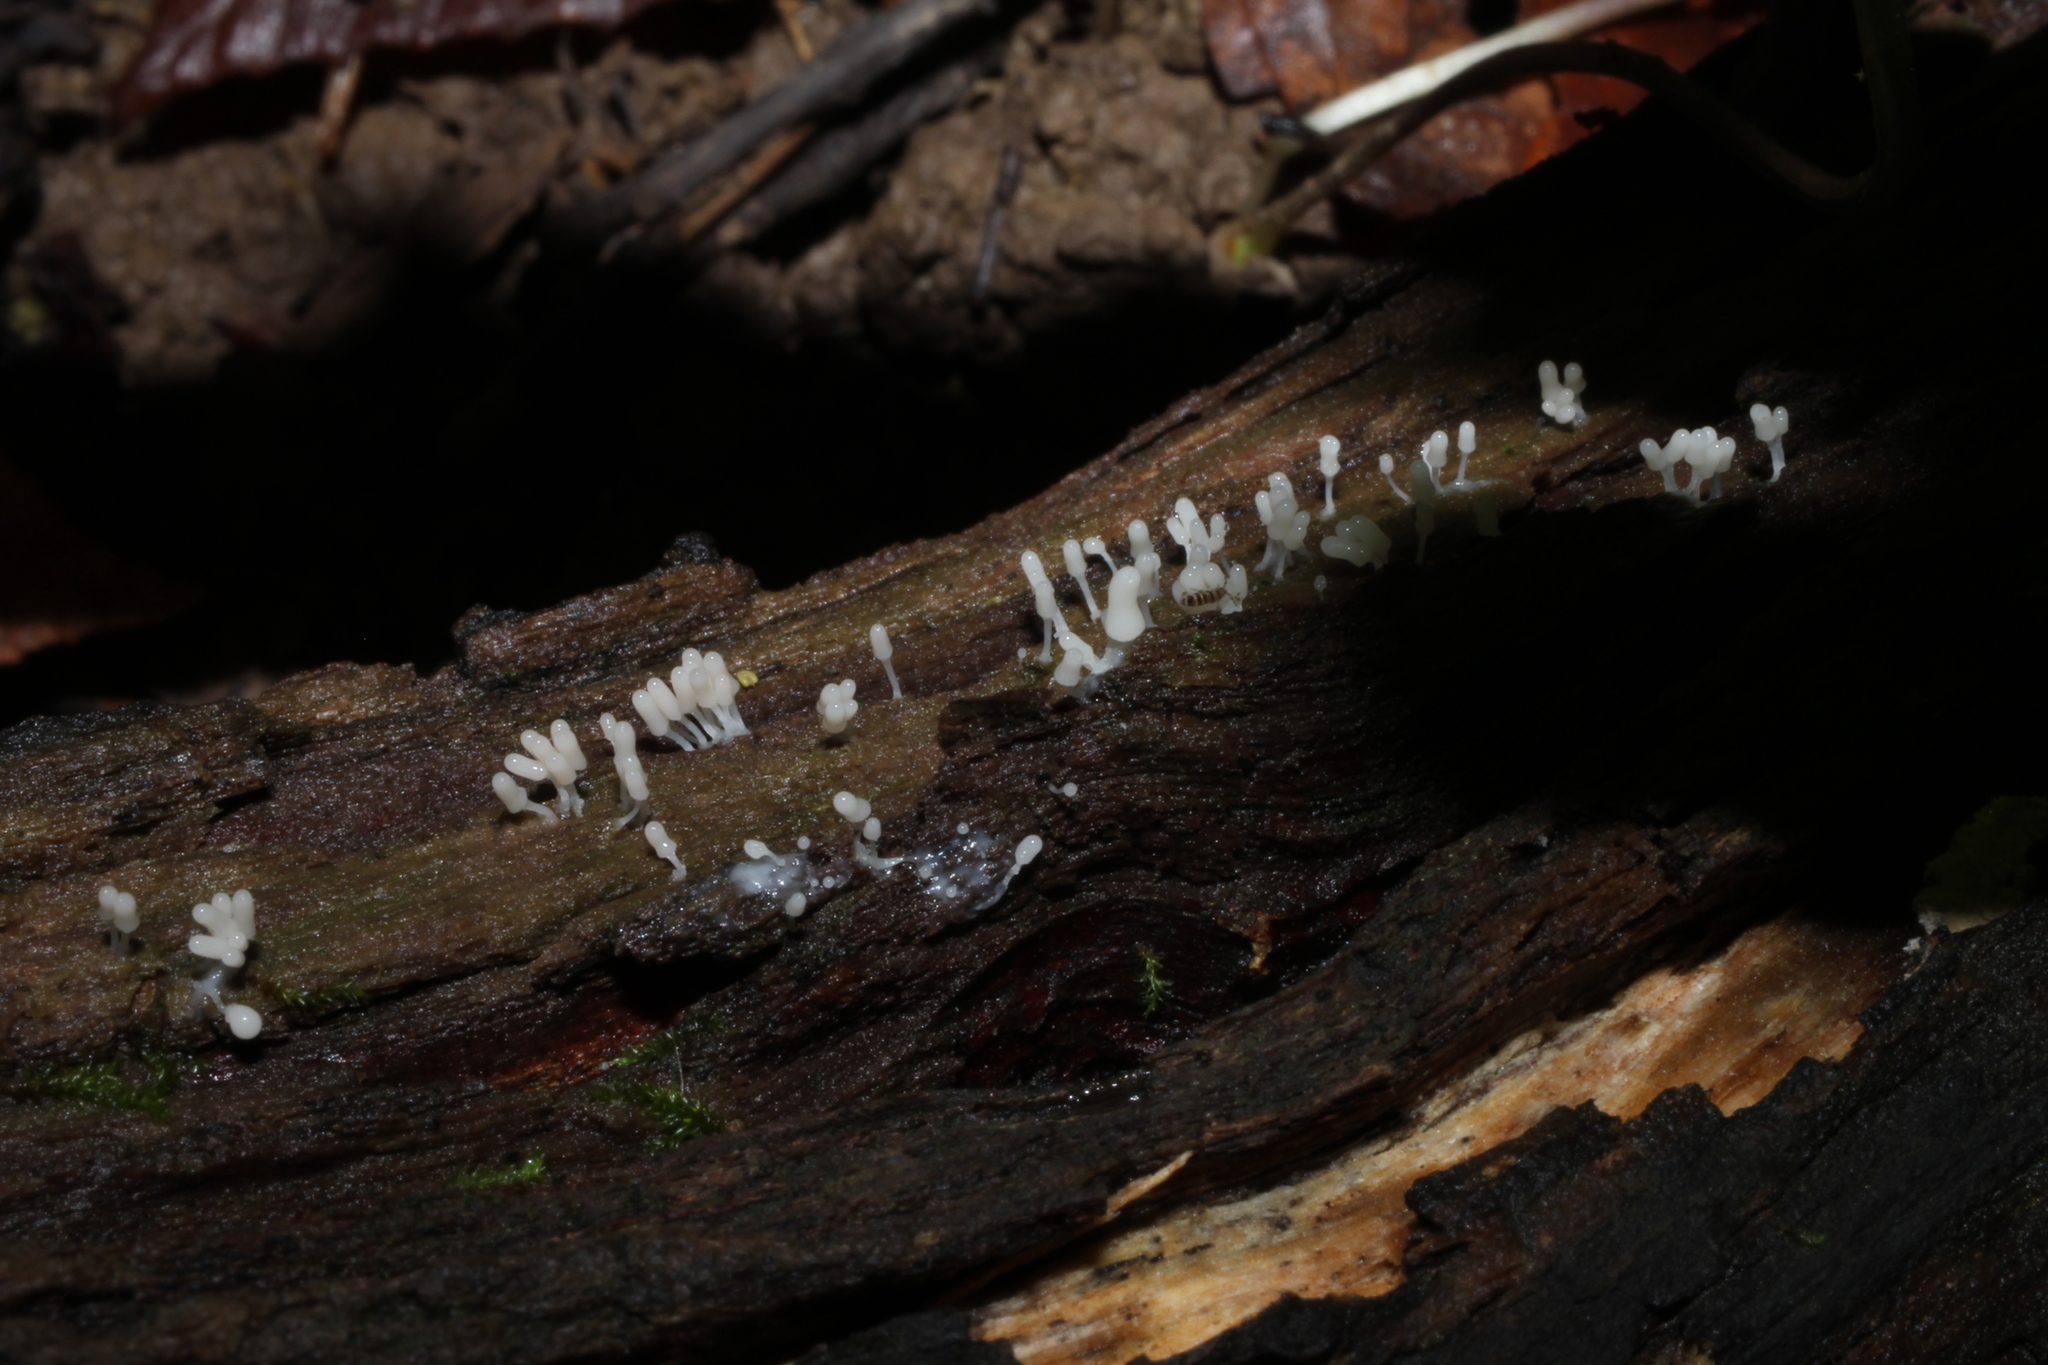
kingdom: Protozoa
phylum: Mycetozoa
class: Myxomycetes
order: Trichiales
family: Arcyriaceae
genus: Arcyria
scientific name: Arcyria cinerea
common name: White carnival candy slime mold
